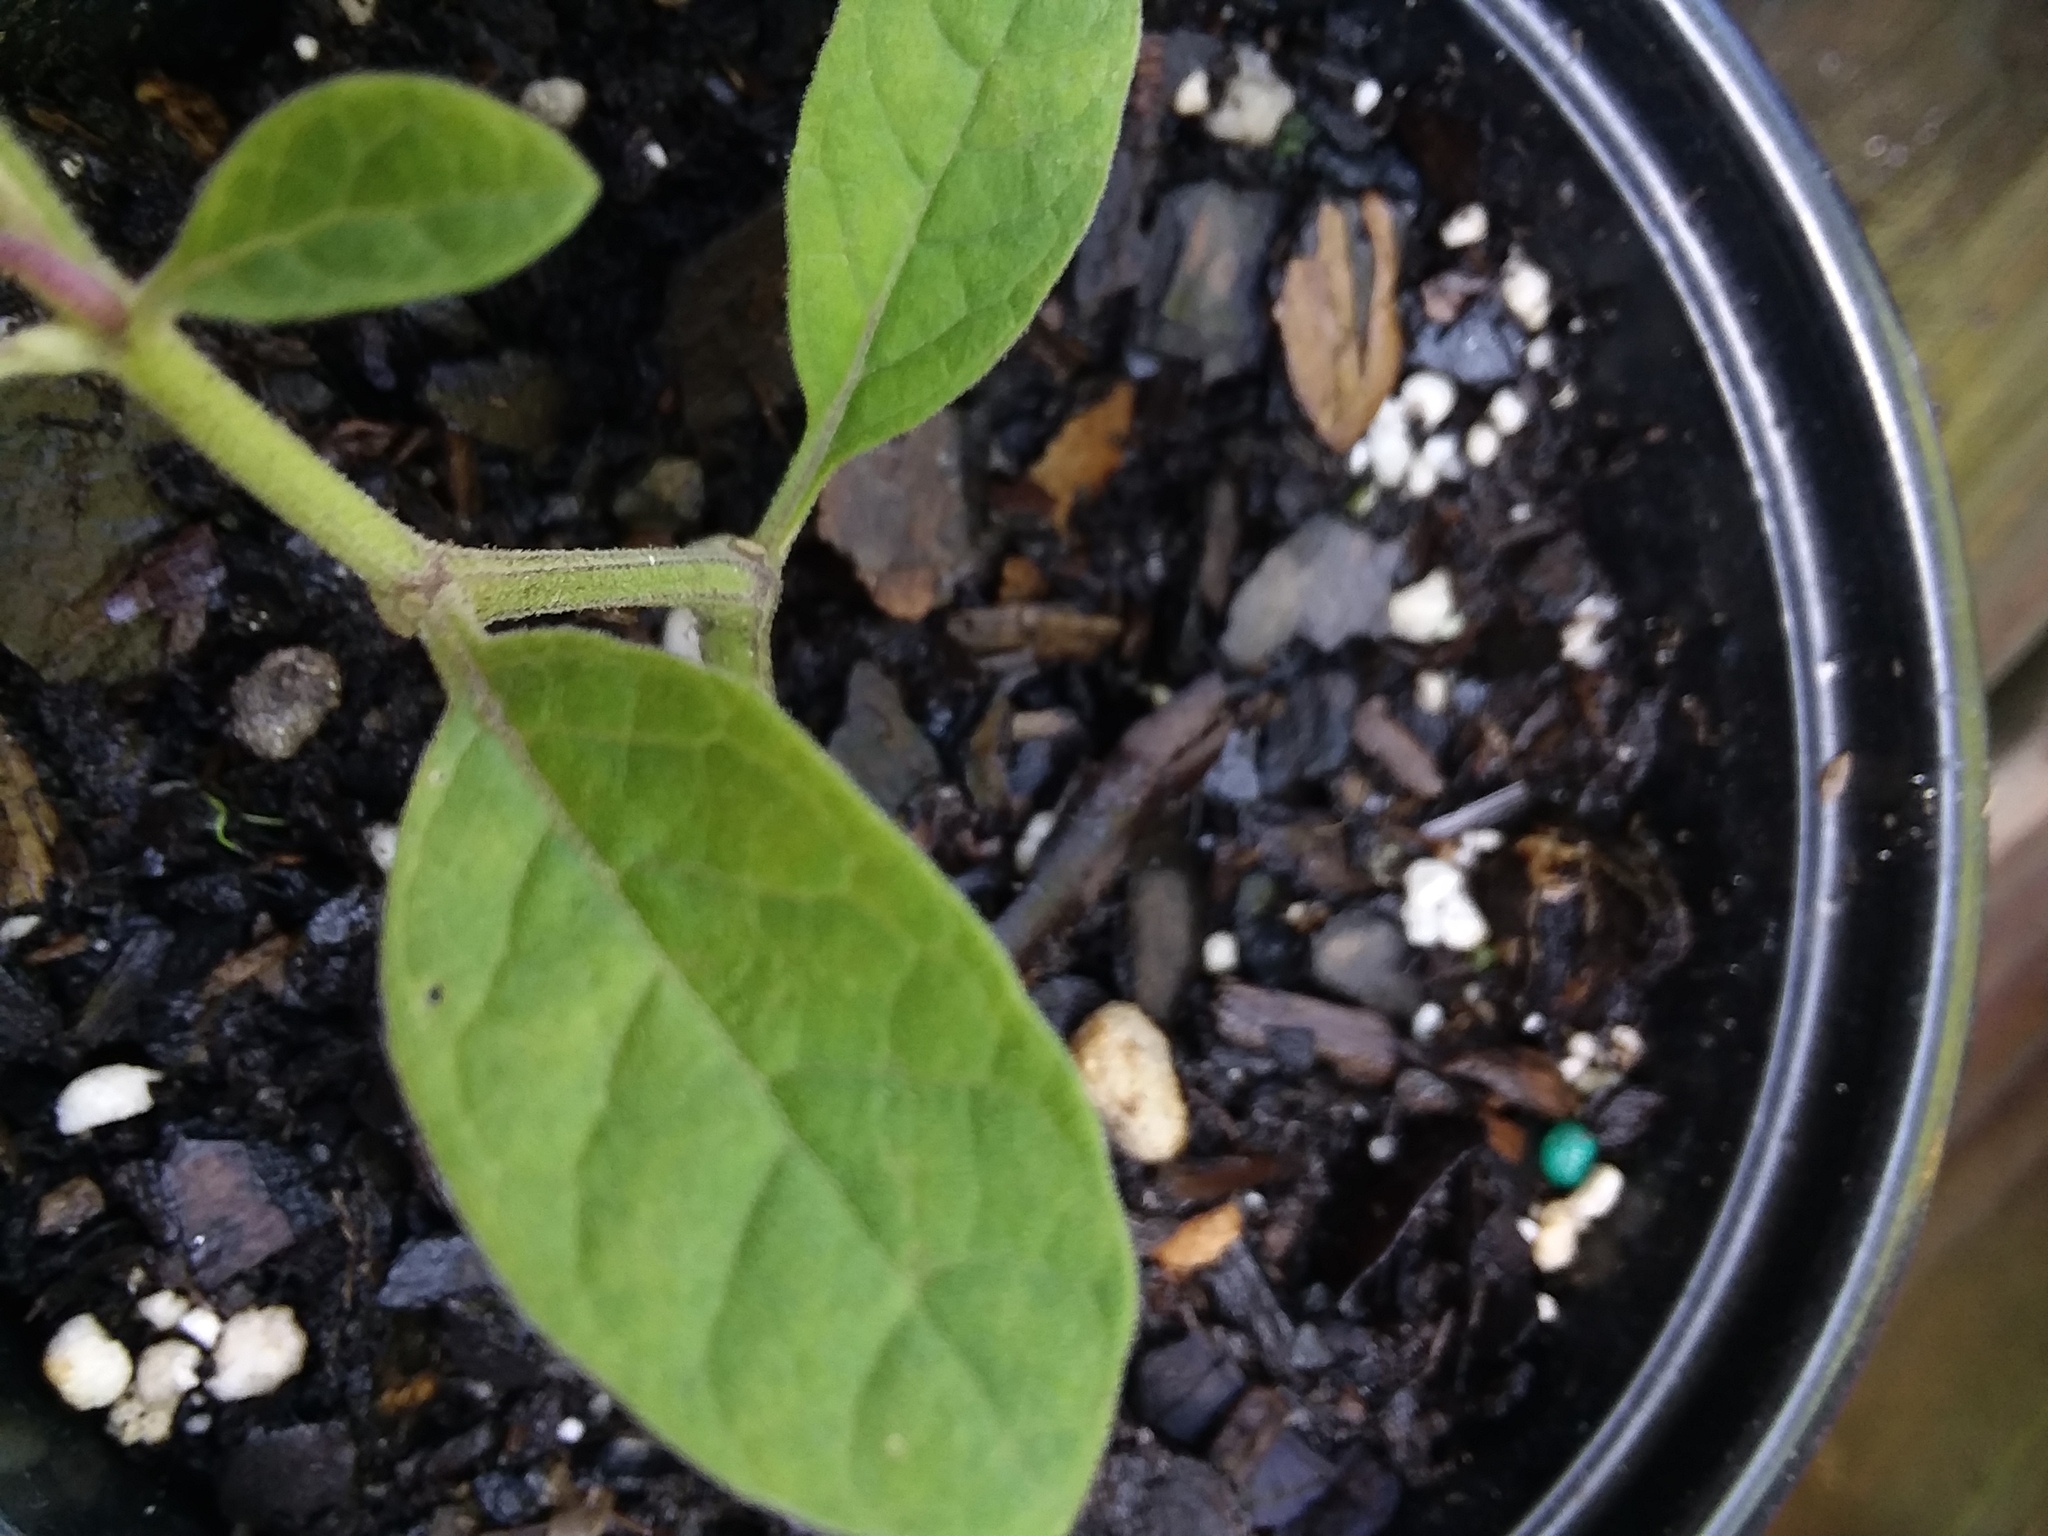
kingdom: Plantae
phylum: Tracheophyta
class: Magnoliopsida
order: Solanales
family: Solanaceae
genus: Physalis
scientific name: Physalis walteri
